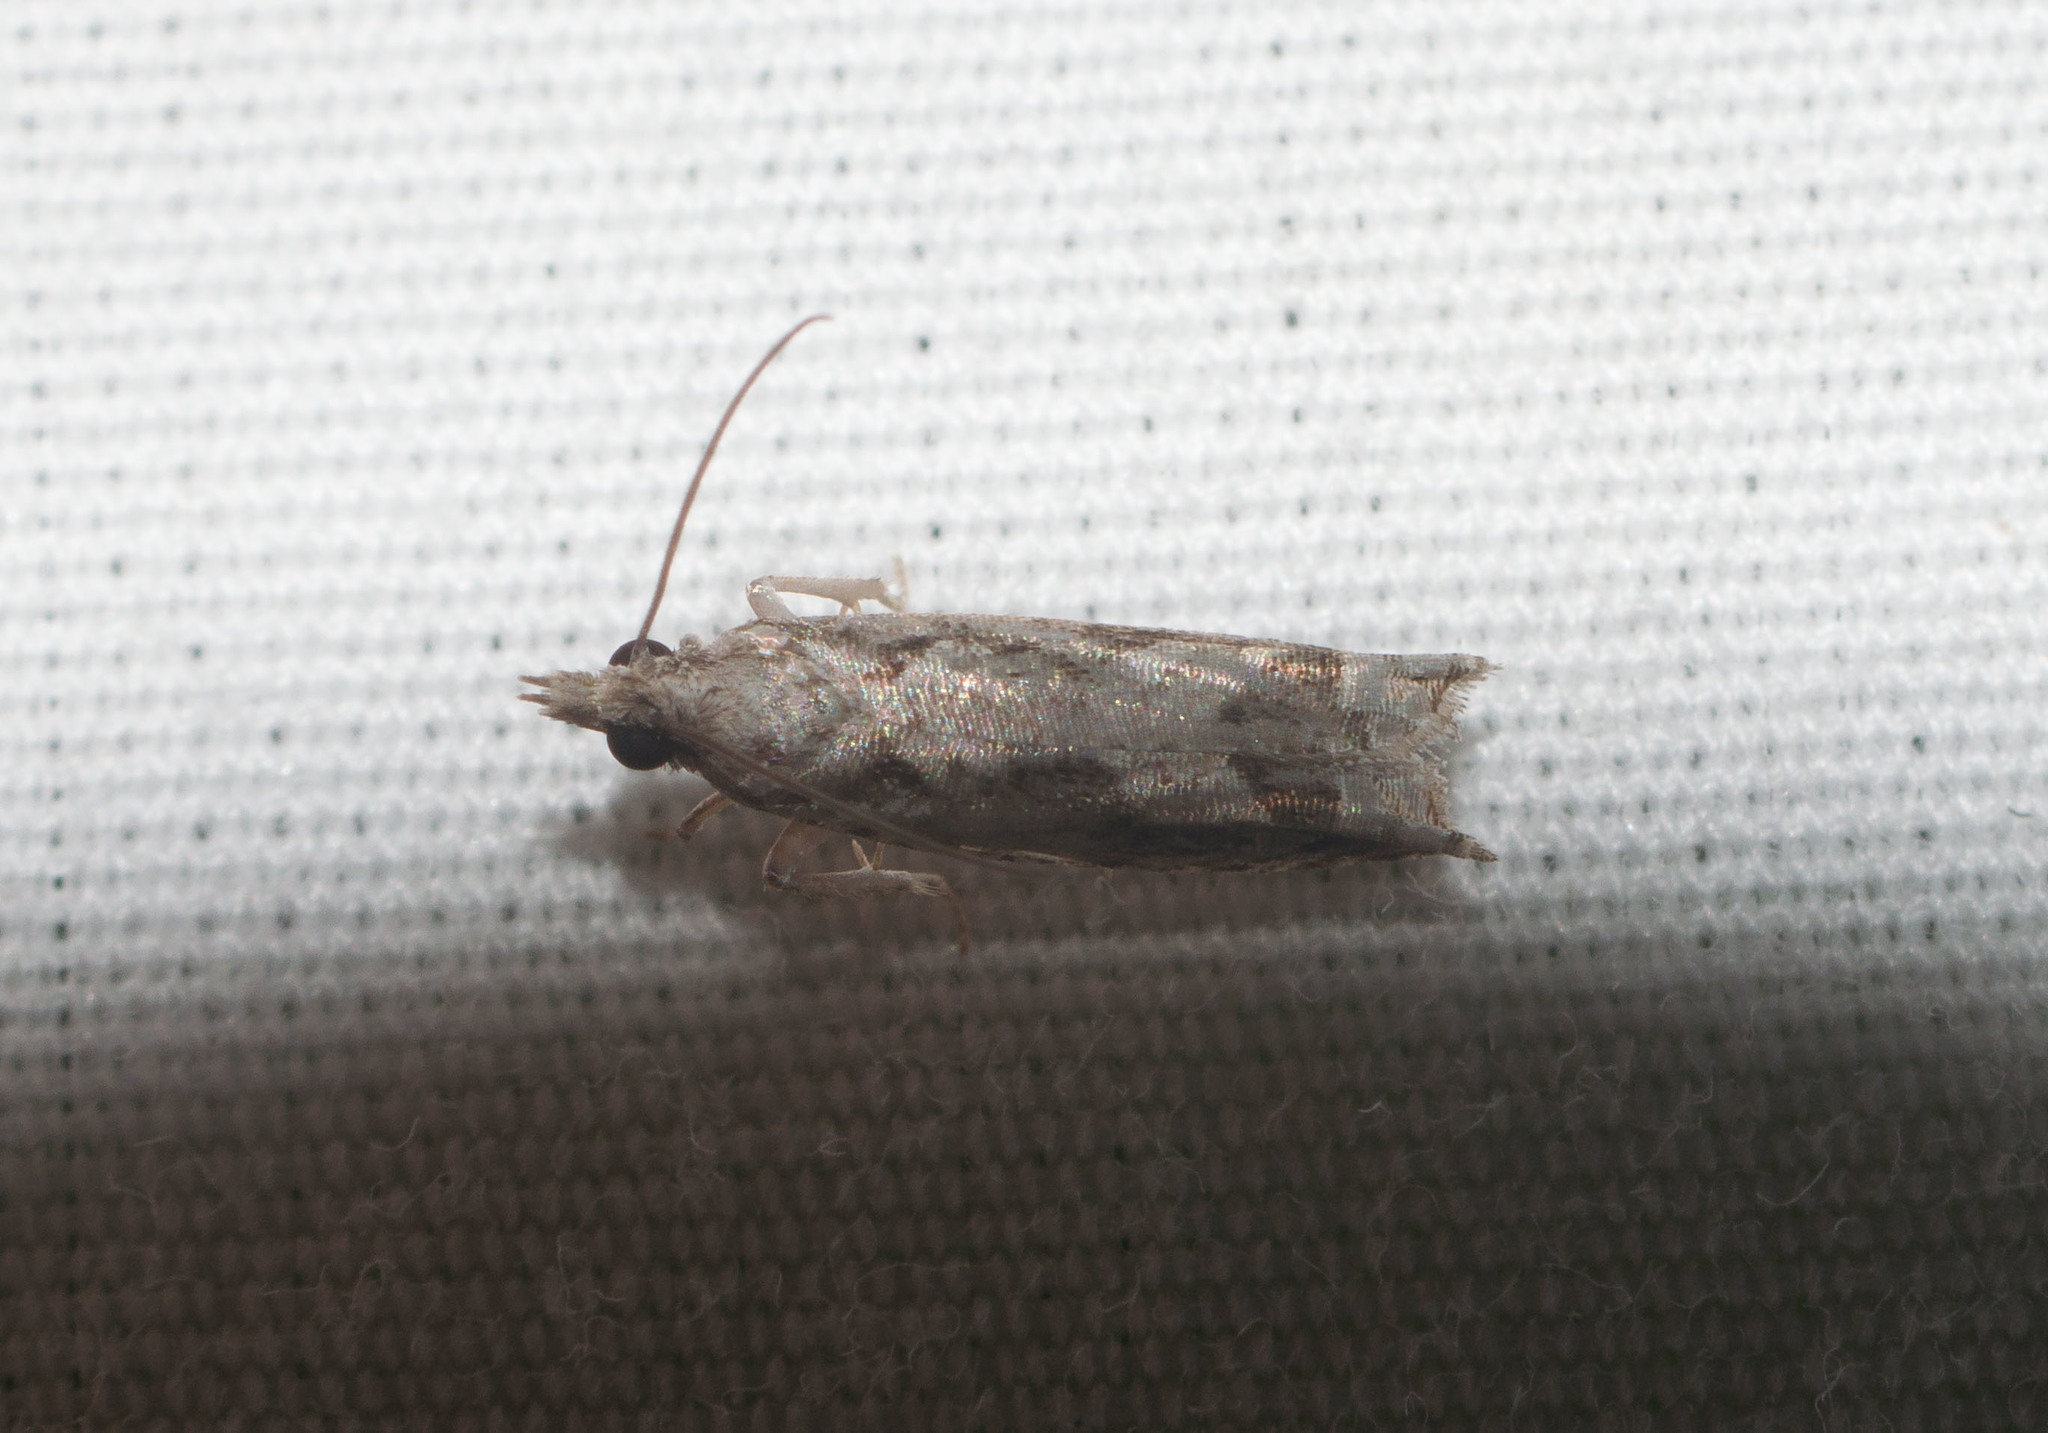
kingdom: Animalia
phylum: Arthropoda
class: Insecta
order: Lepidoptera
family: Tortricidae
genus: Eccoptocera
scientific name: Eccoptocera foetorivorans
